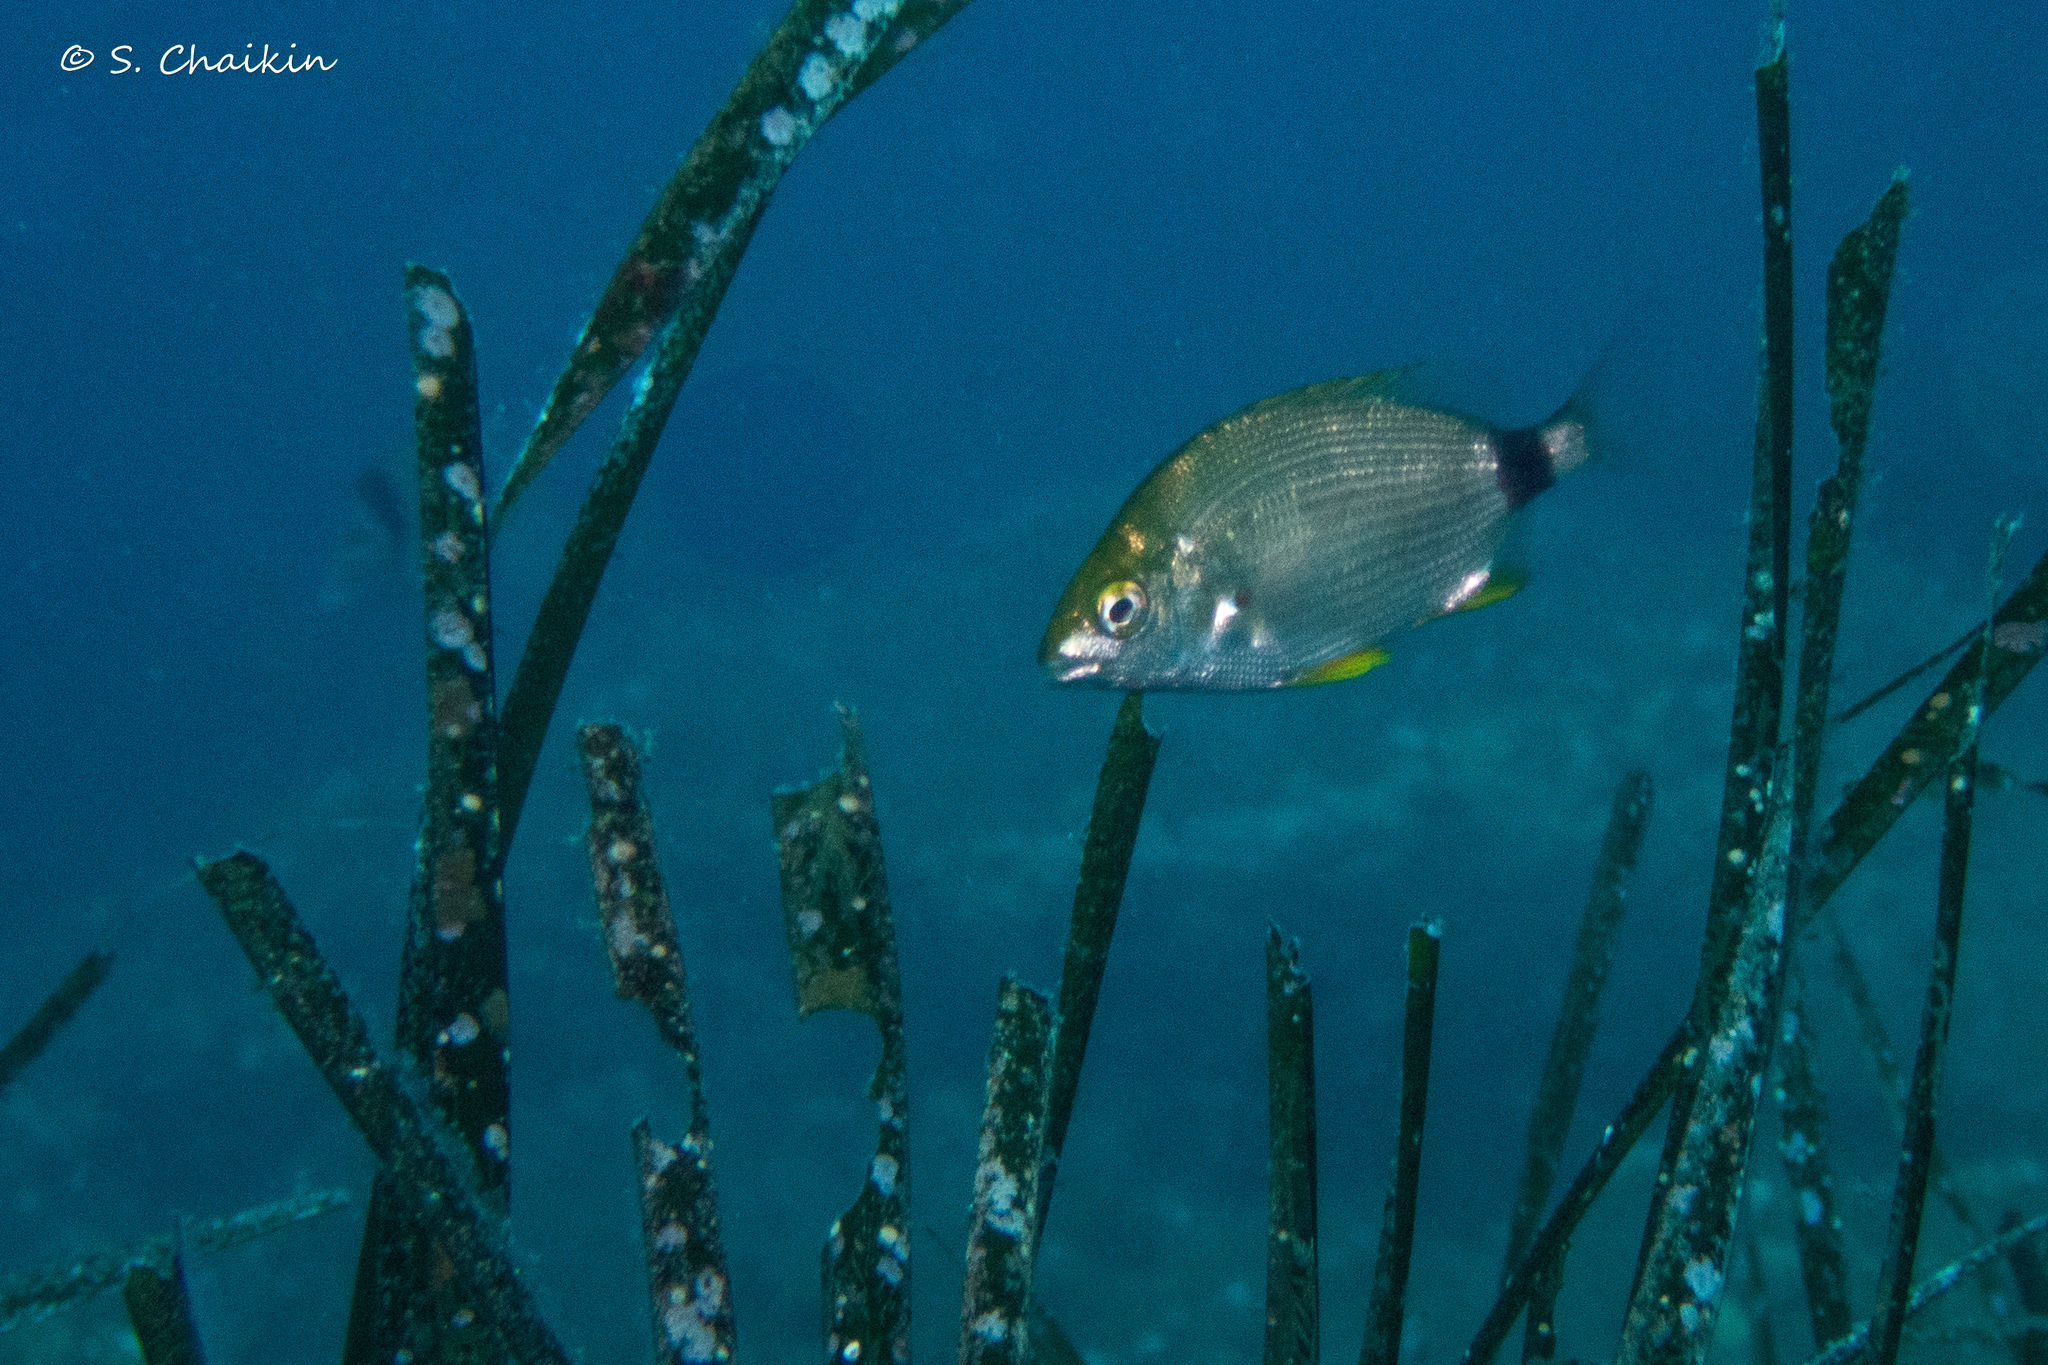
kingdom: Animalia
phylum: Chordata
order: Perciformes
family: Sparidae
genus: Diplodus
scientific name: Diplodus annularis
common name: Annular seabream
